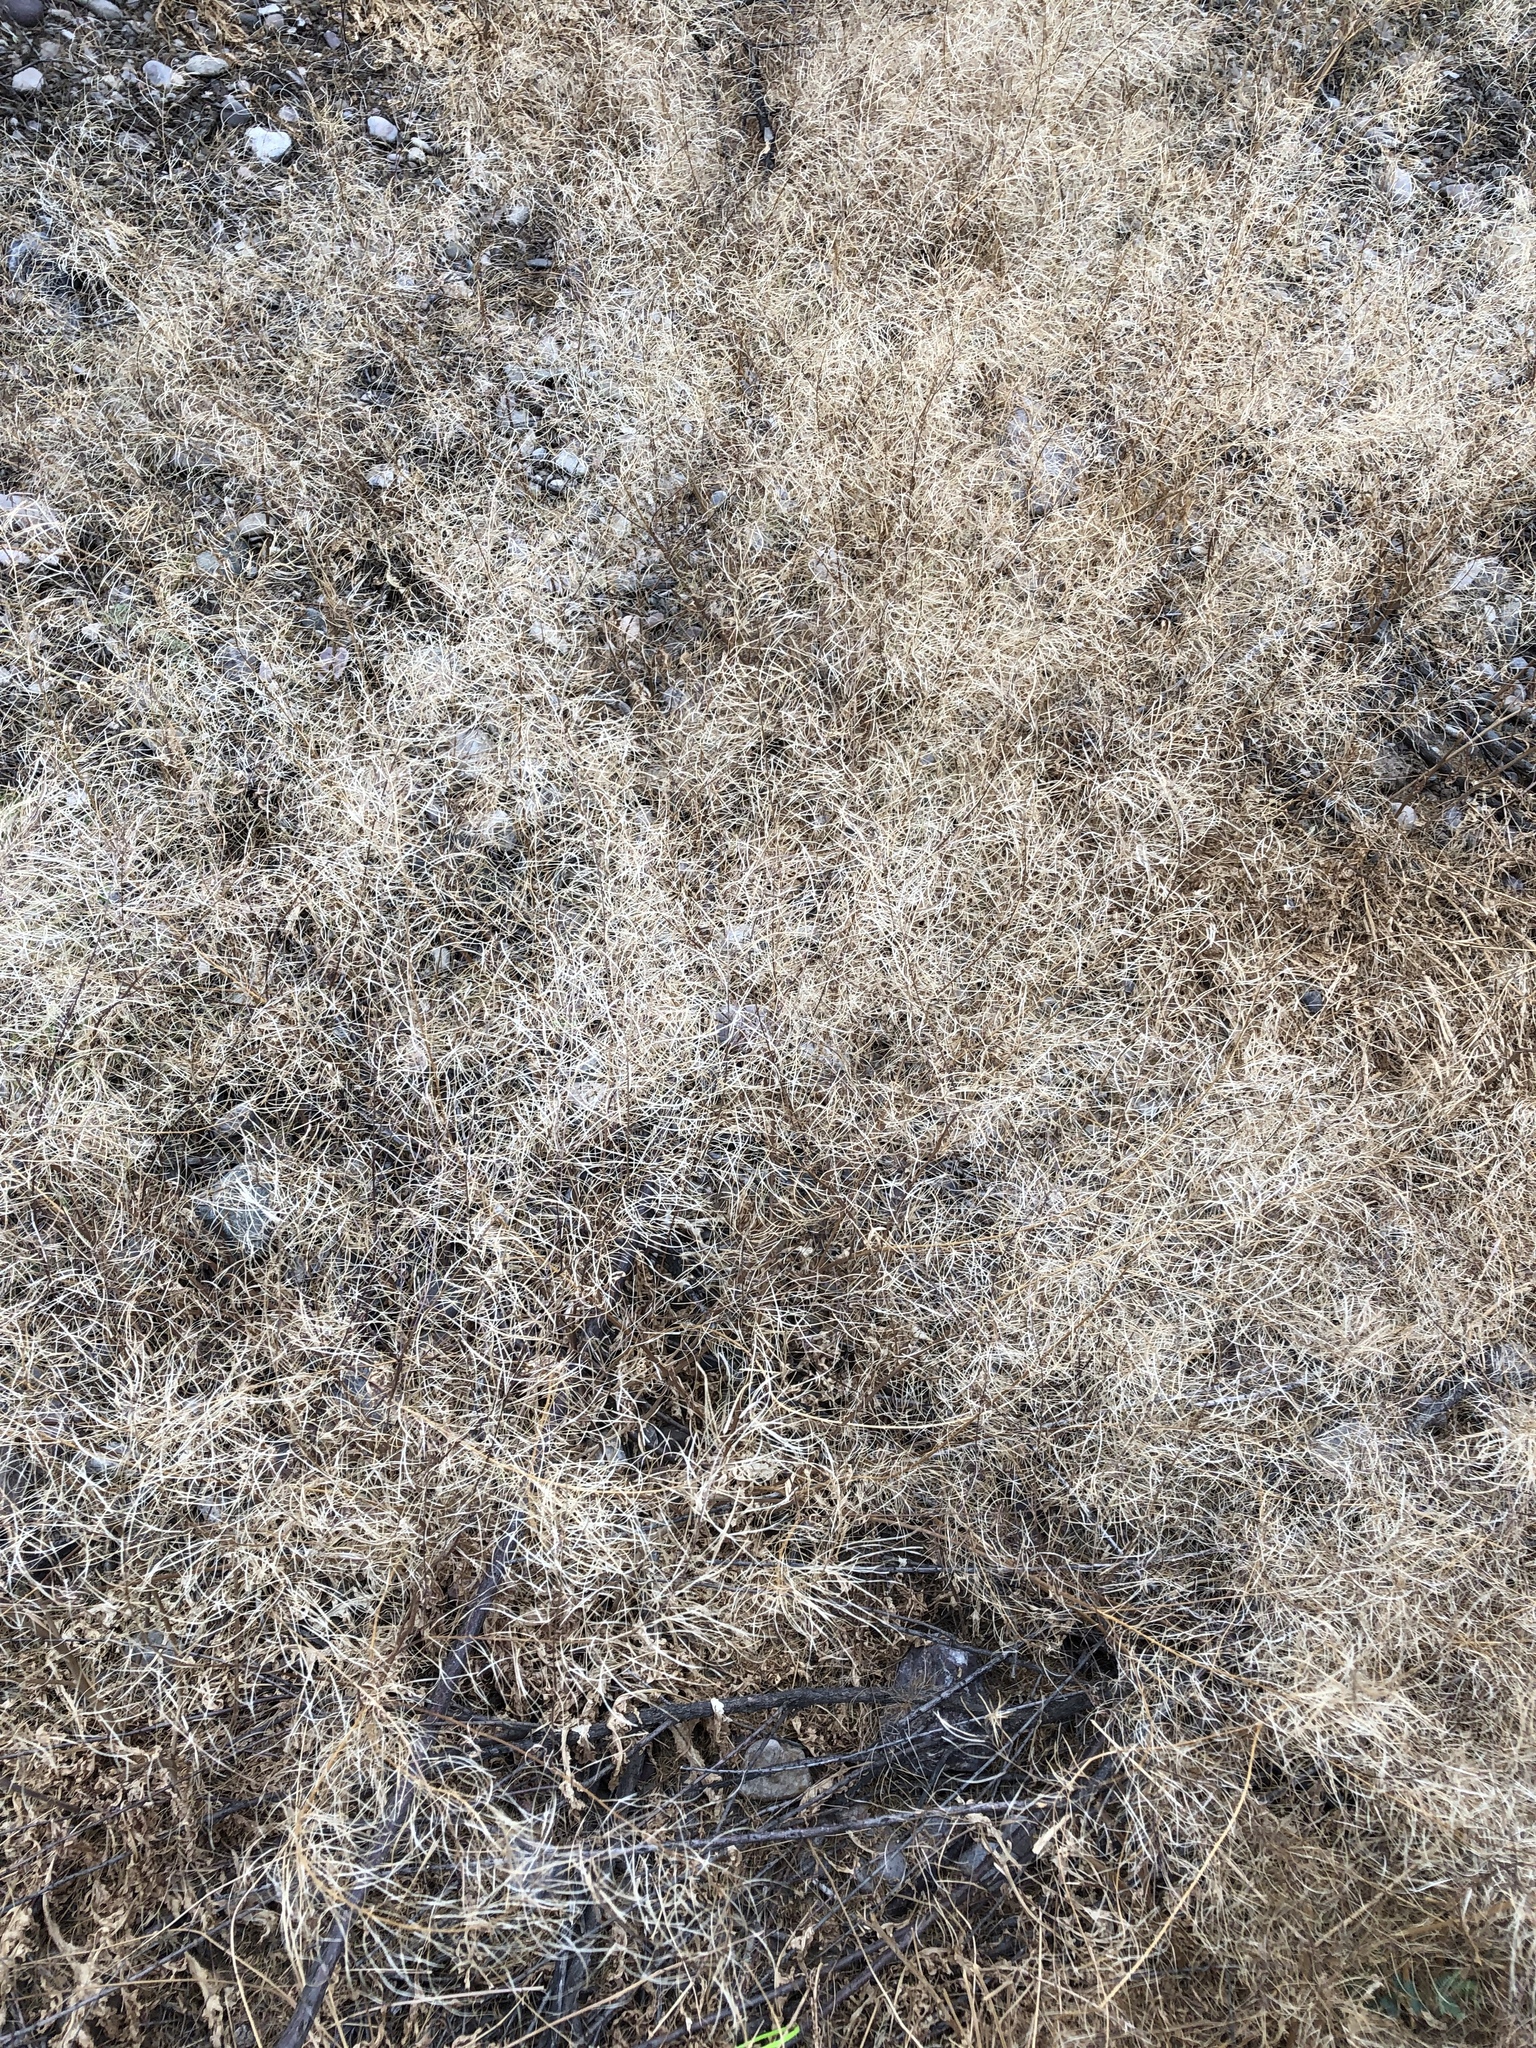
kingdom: Plantae
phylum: Tracheophyta
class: Magnoliopsida
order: Brassicales
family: Brassicaceae
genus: Sisymbrium
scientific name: Sisymbrium irio
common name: London rocket
